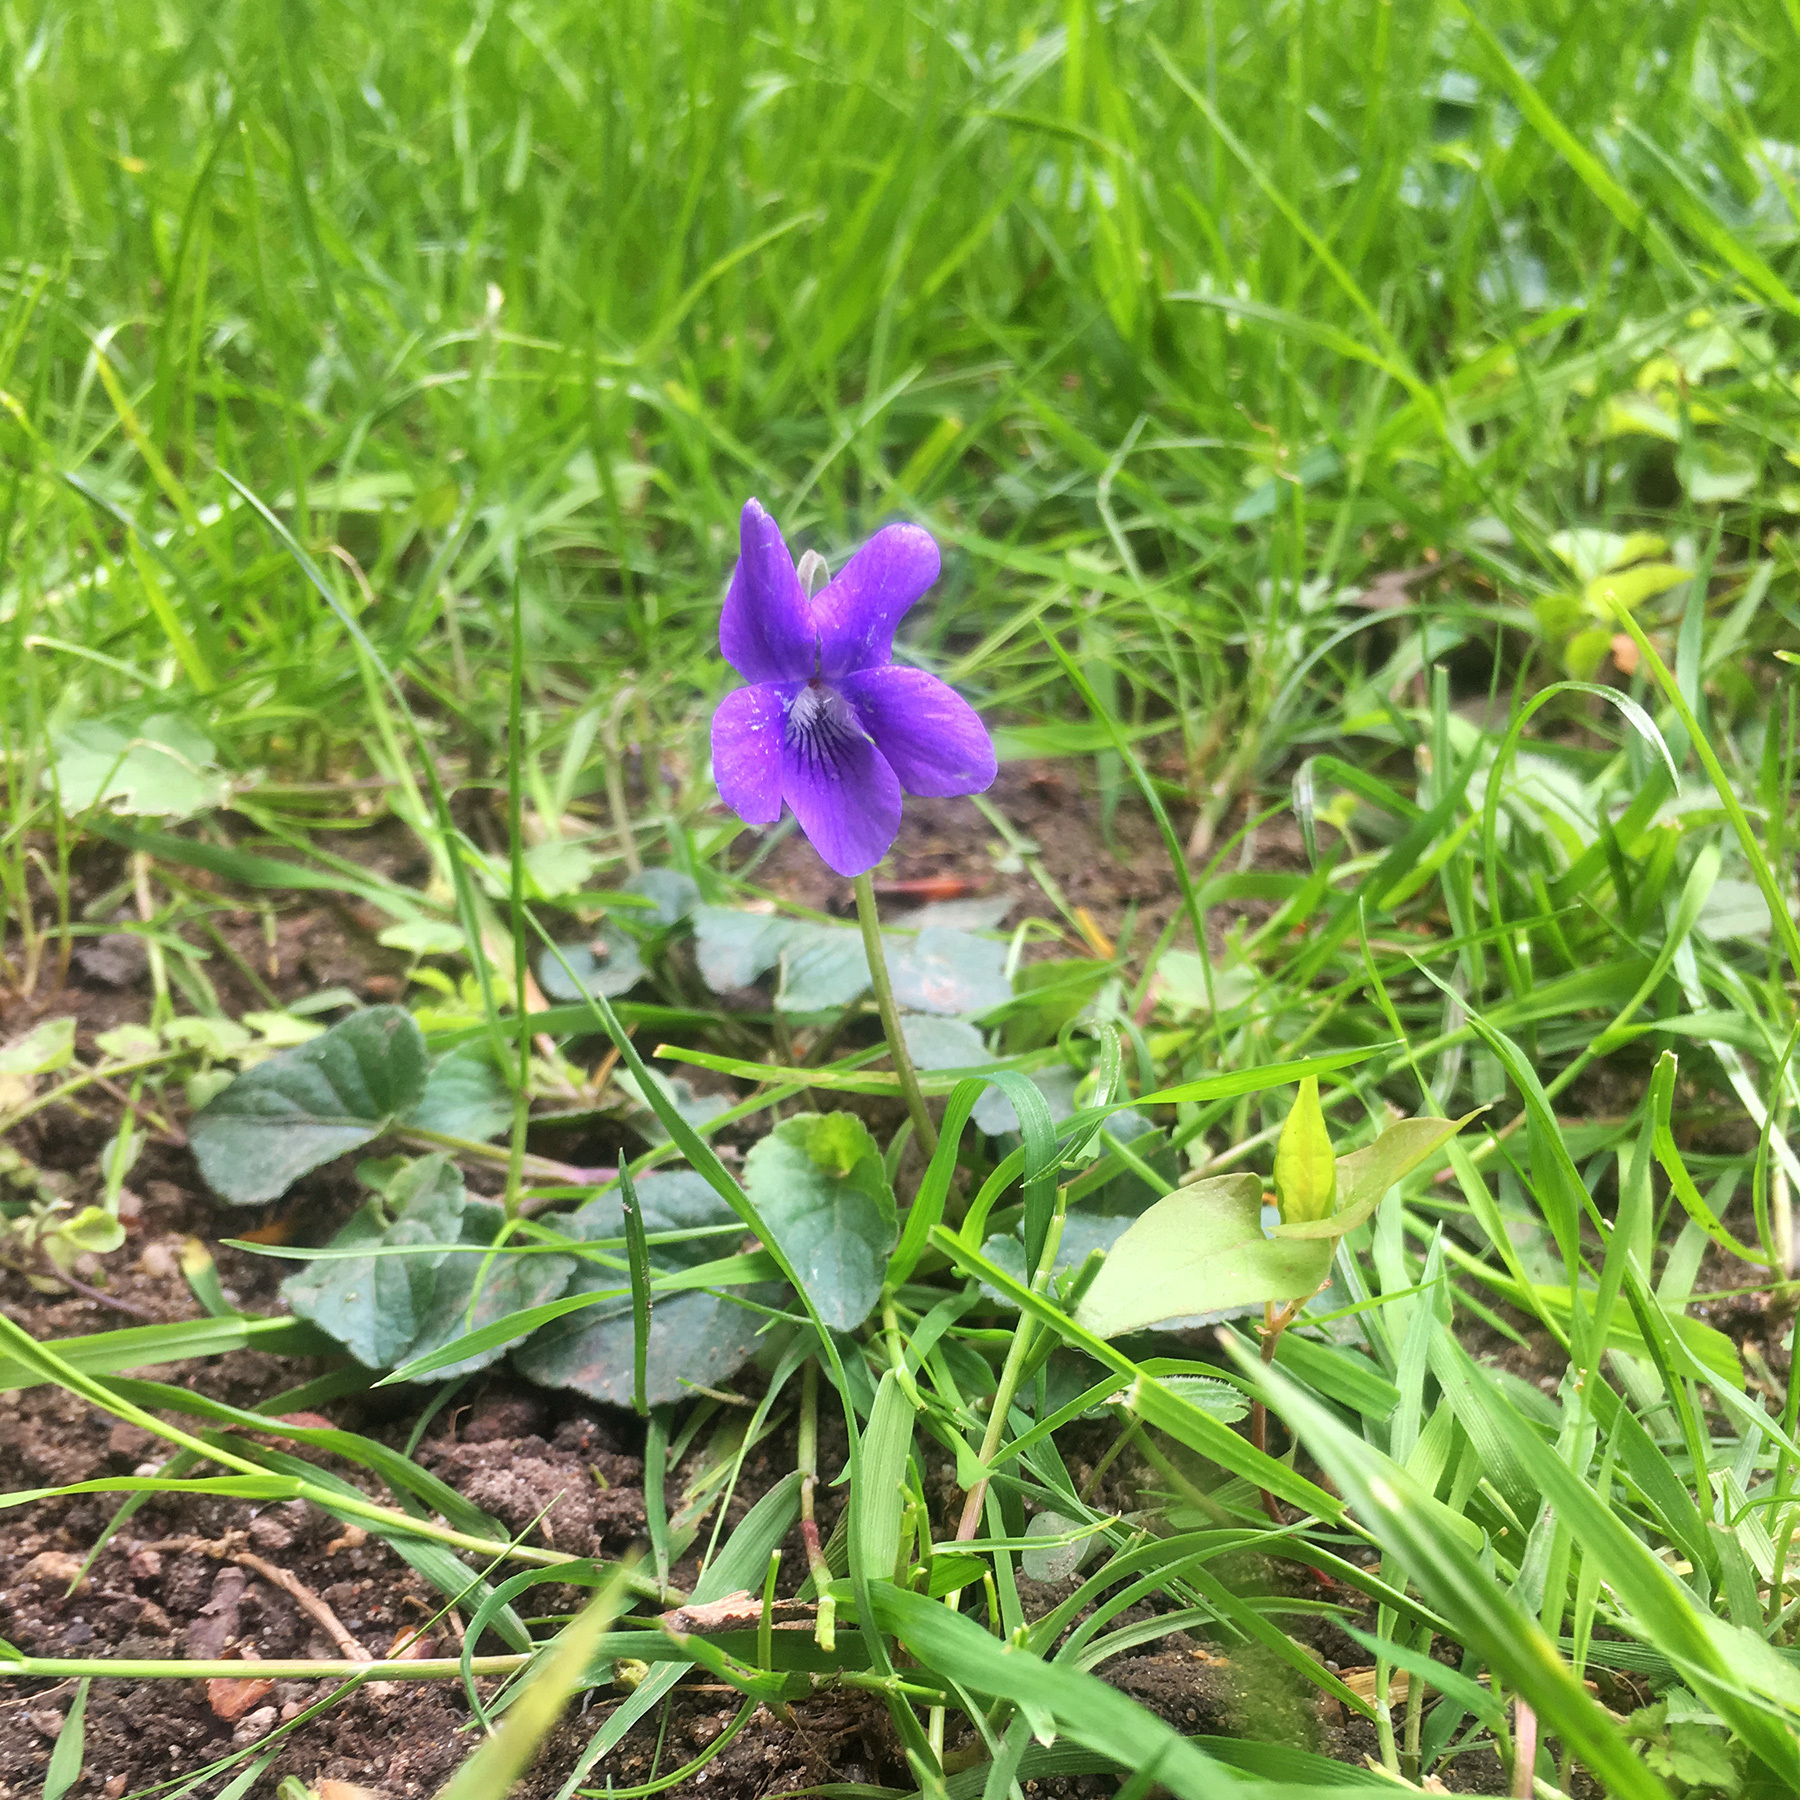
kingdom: Plantae
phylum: Tracheophyta
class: Magnoliopsida
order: Malpighiales
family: Violaceae
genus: Viola
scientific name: Viola odorata
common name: Sweet violet
